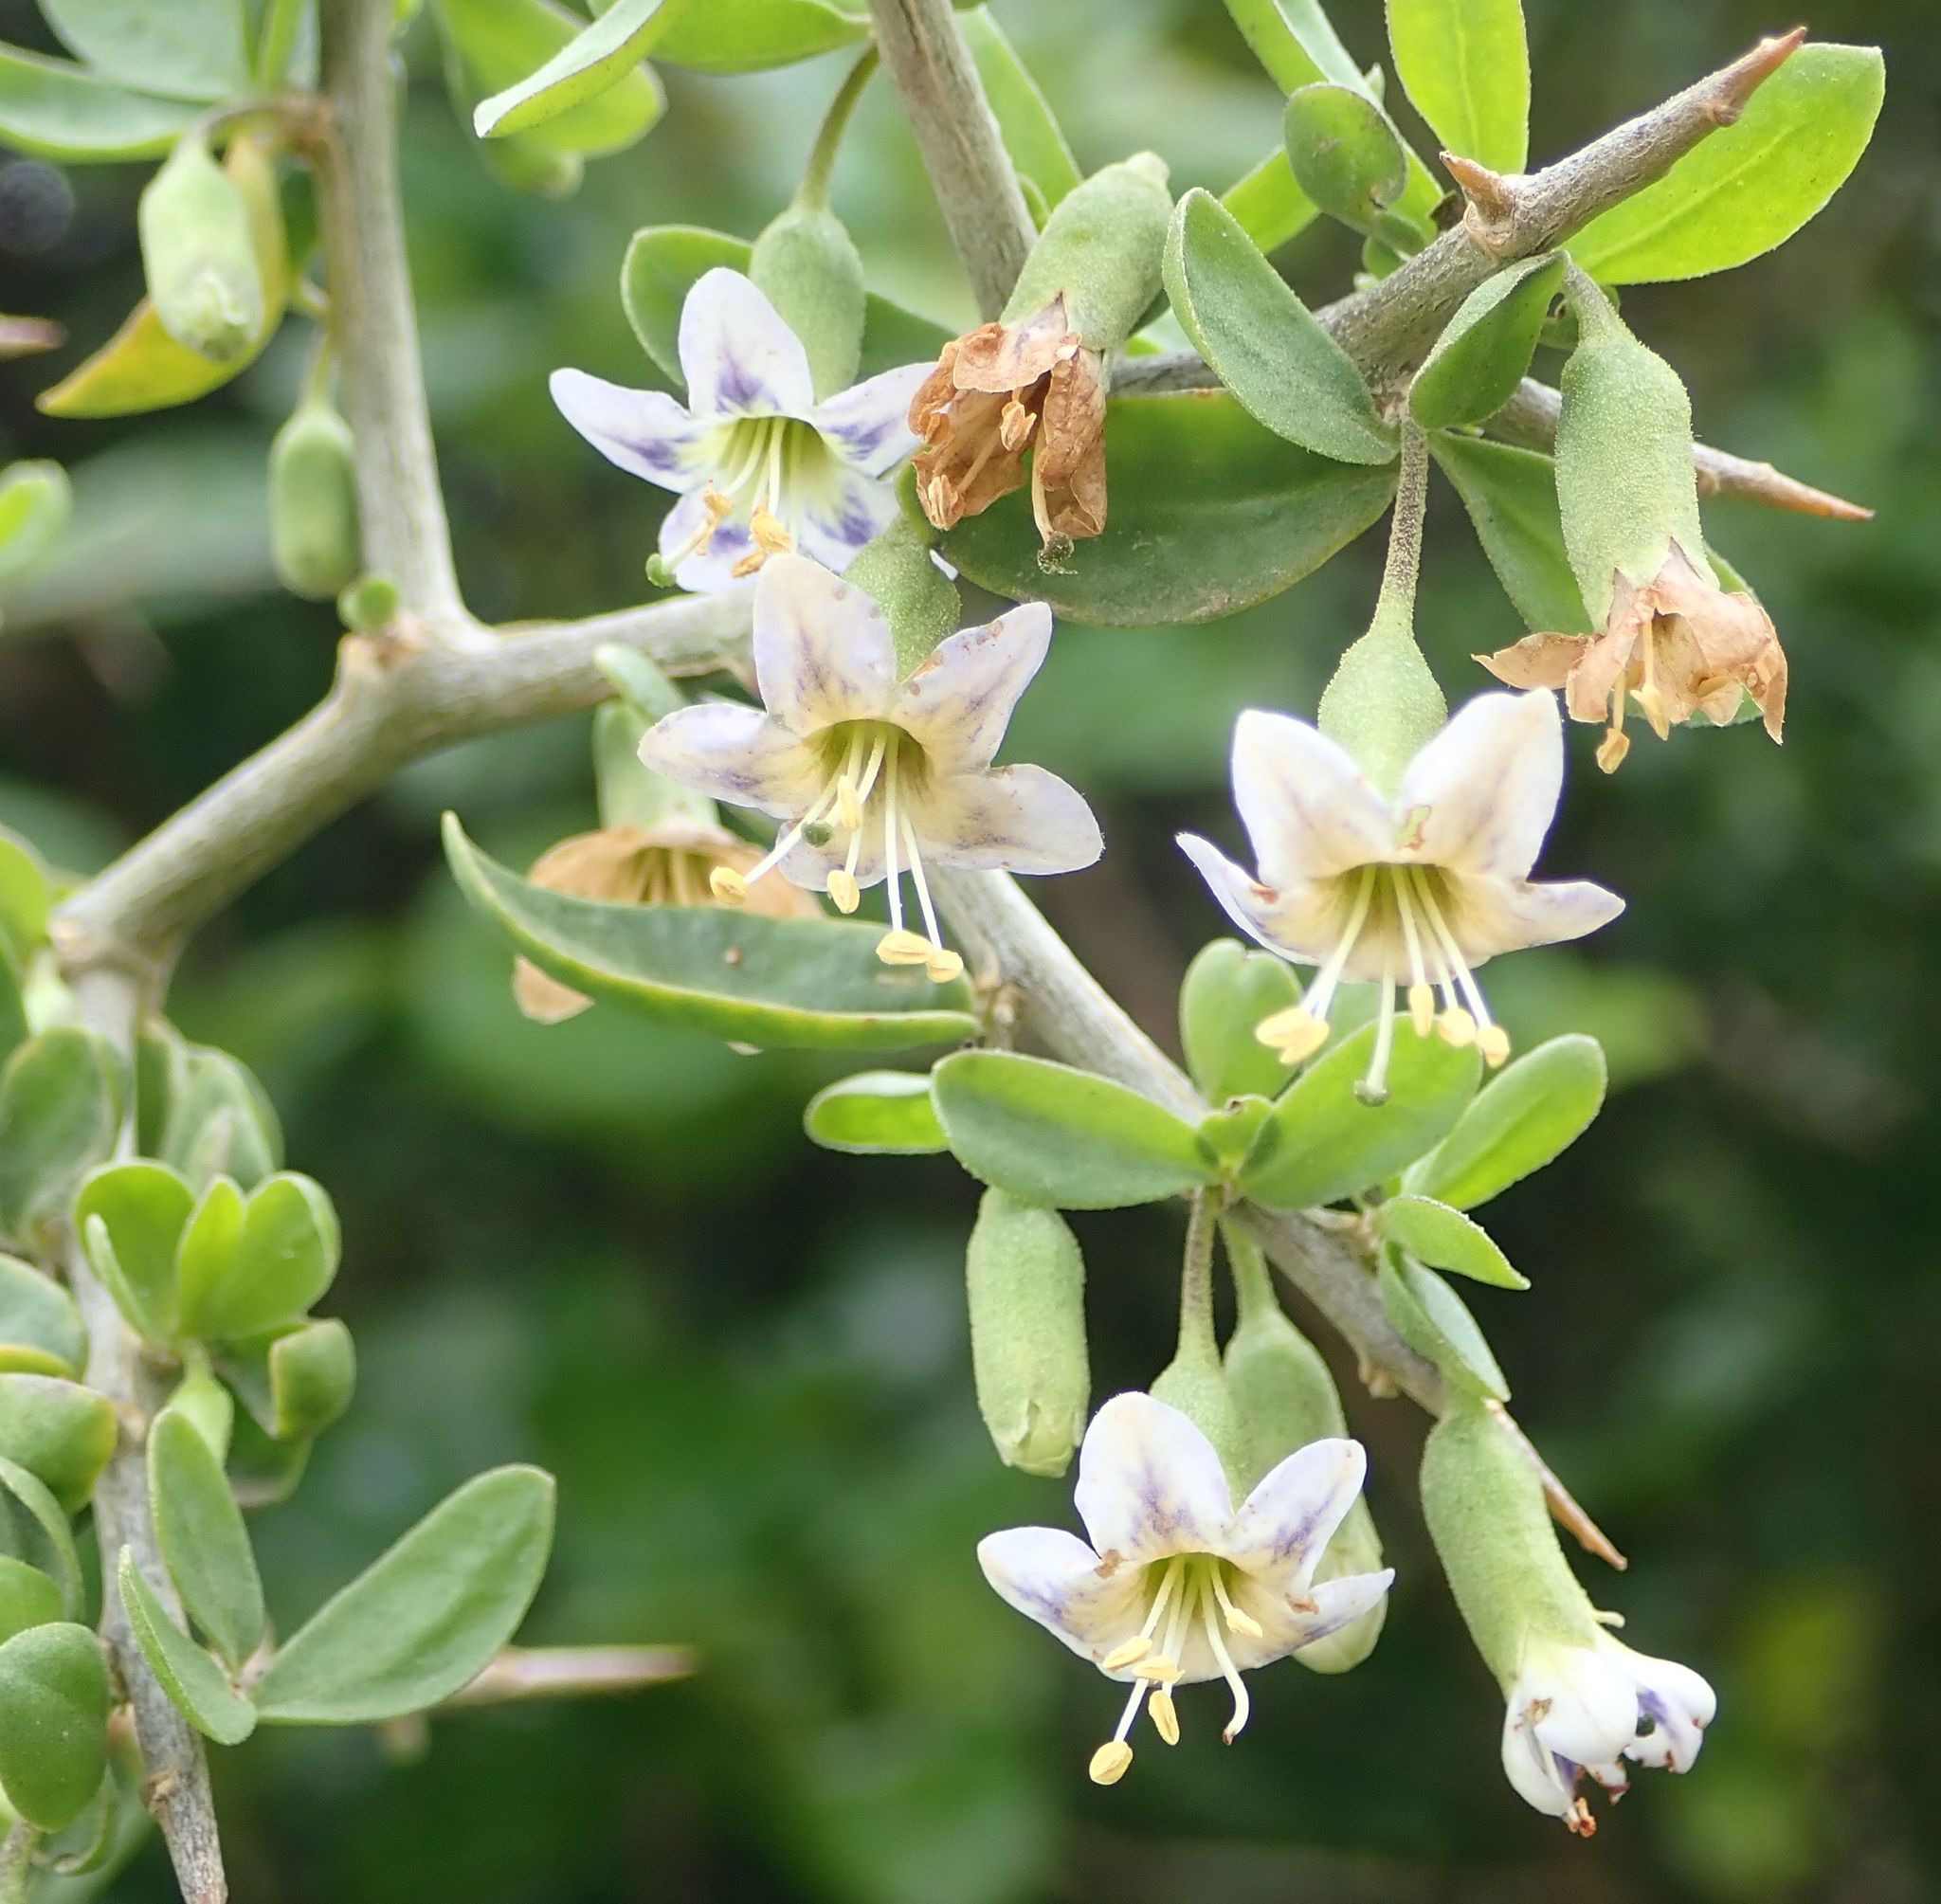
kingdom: Plantae
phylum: Tracheophyta
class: Magnoliopsida
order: Solanales
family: Solanaceae
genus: Lycium
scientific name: Lycium ferocissimum
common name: African boxthorn
